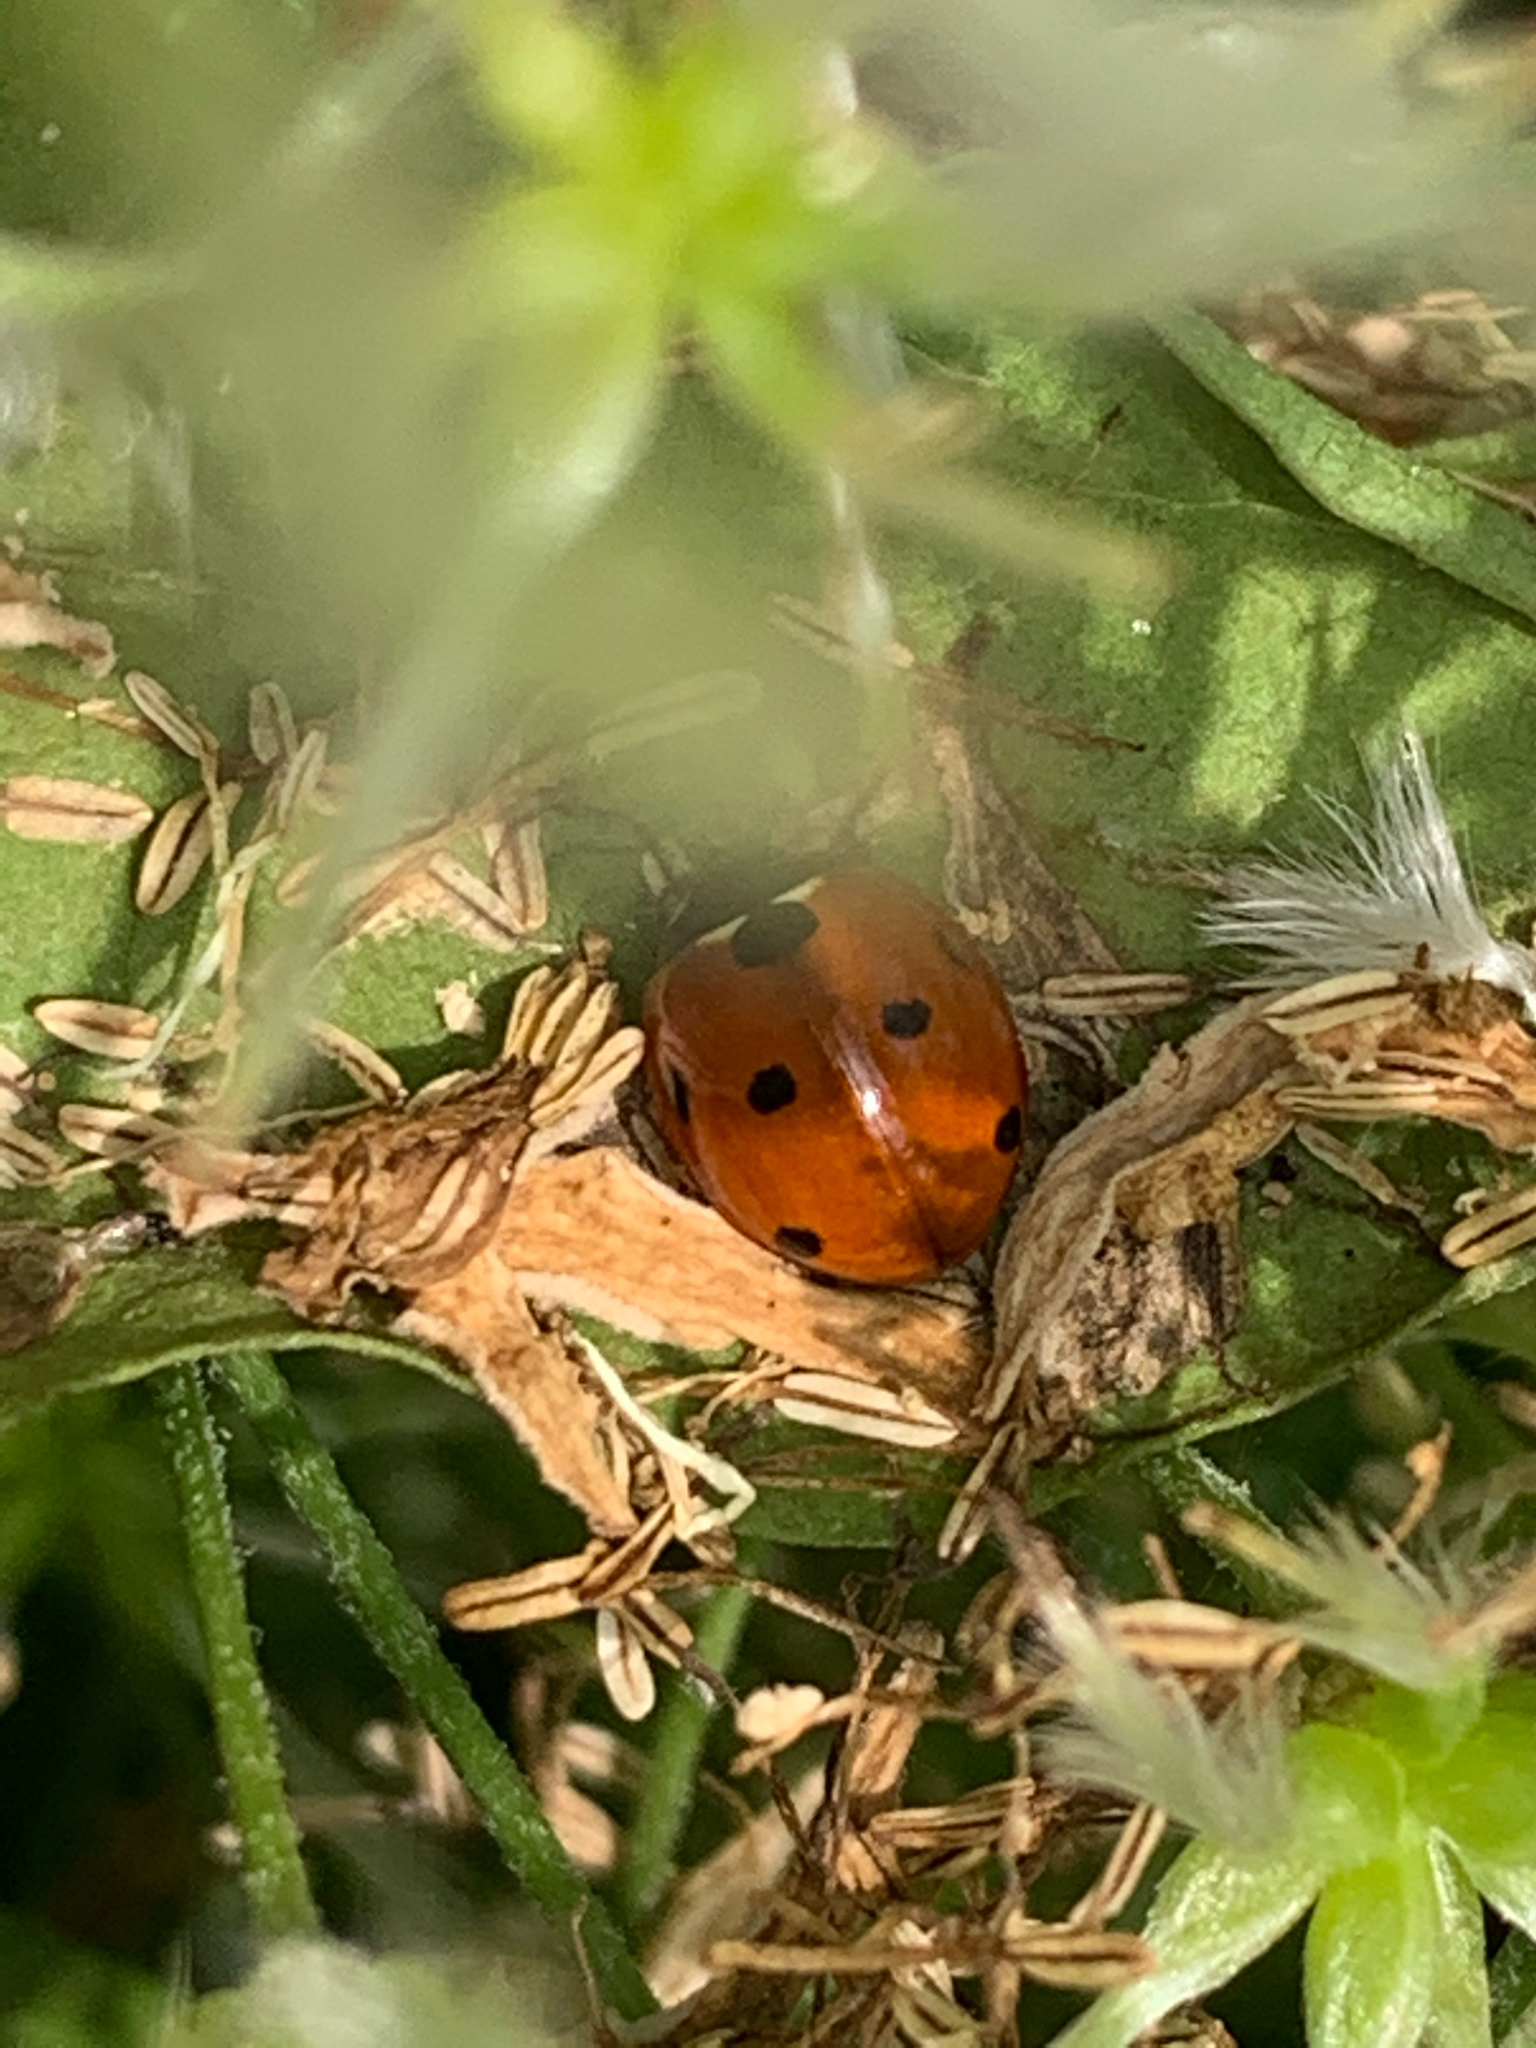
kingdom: Animalia
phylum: Arthropoda
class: Insecta
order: Coleoptera
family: Coccinellidae
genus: Coccinella
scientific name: Coccinella septempunctata
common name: Sevenspotted lady beetle
